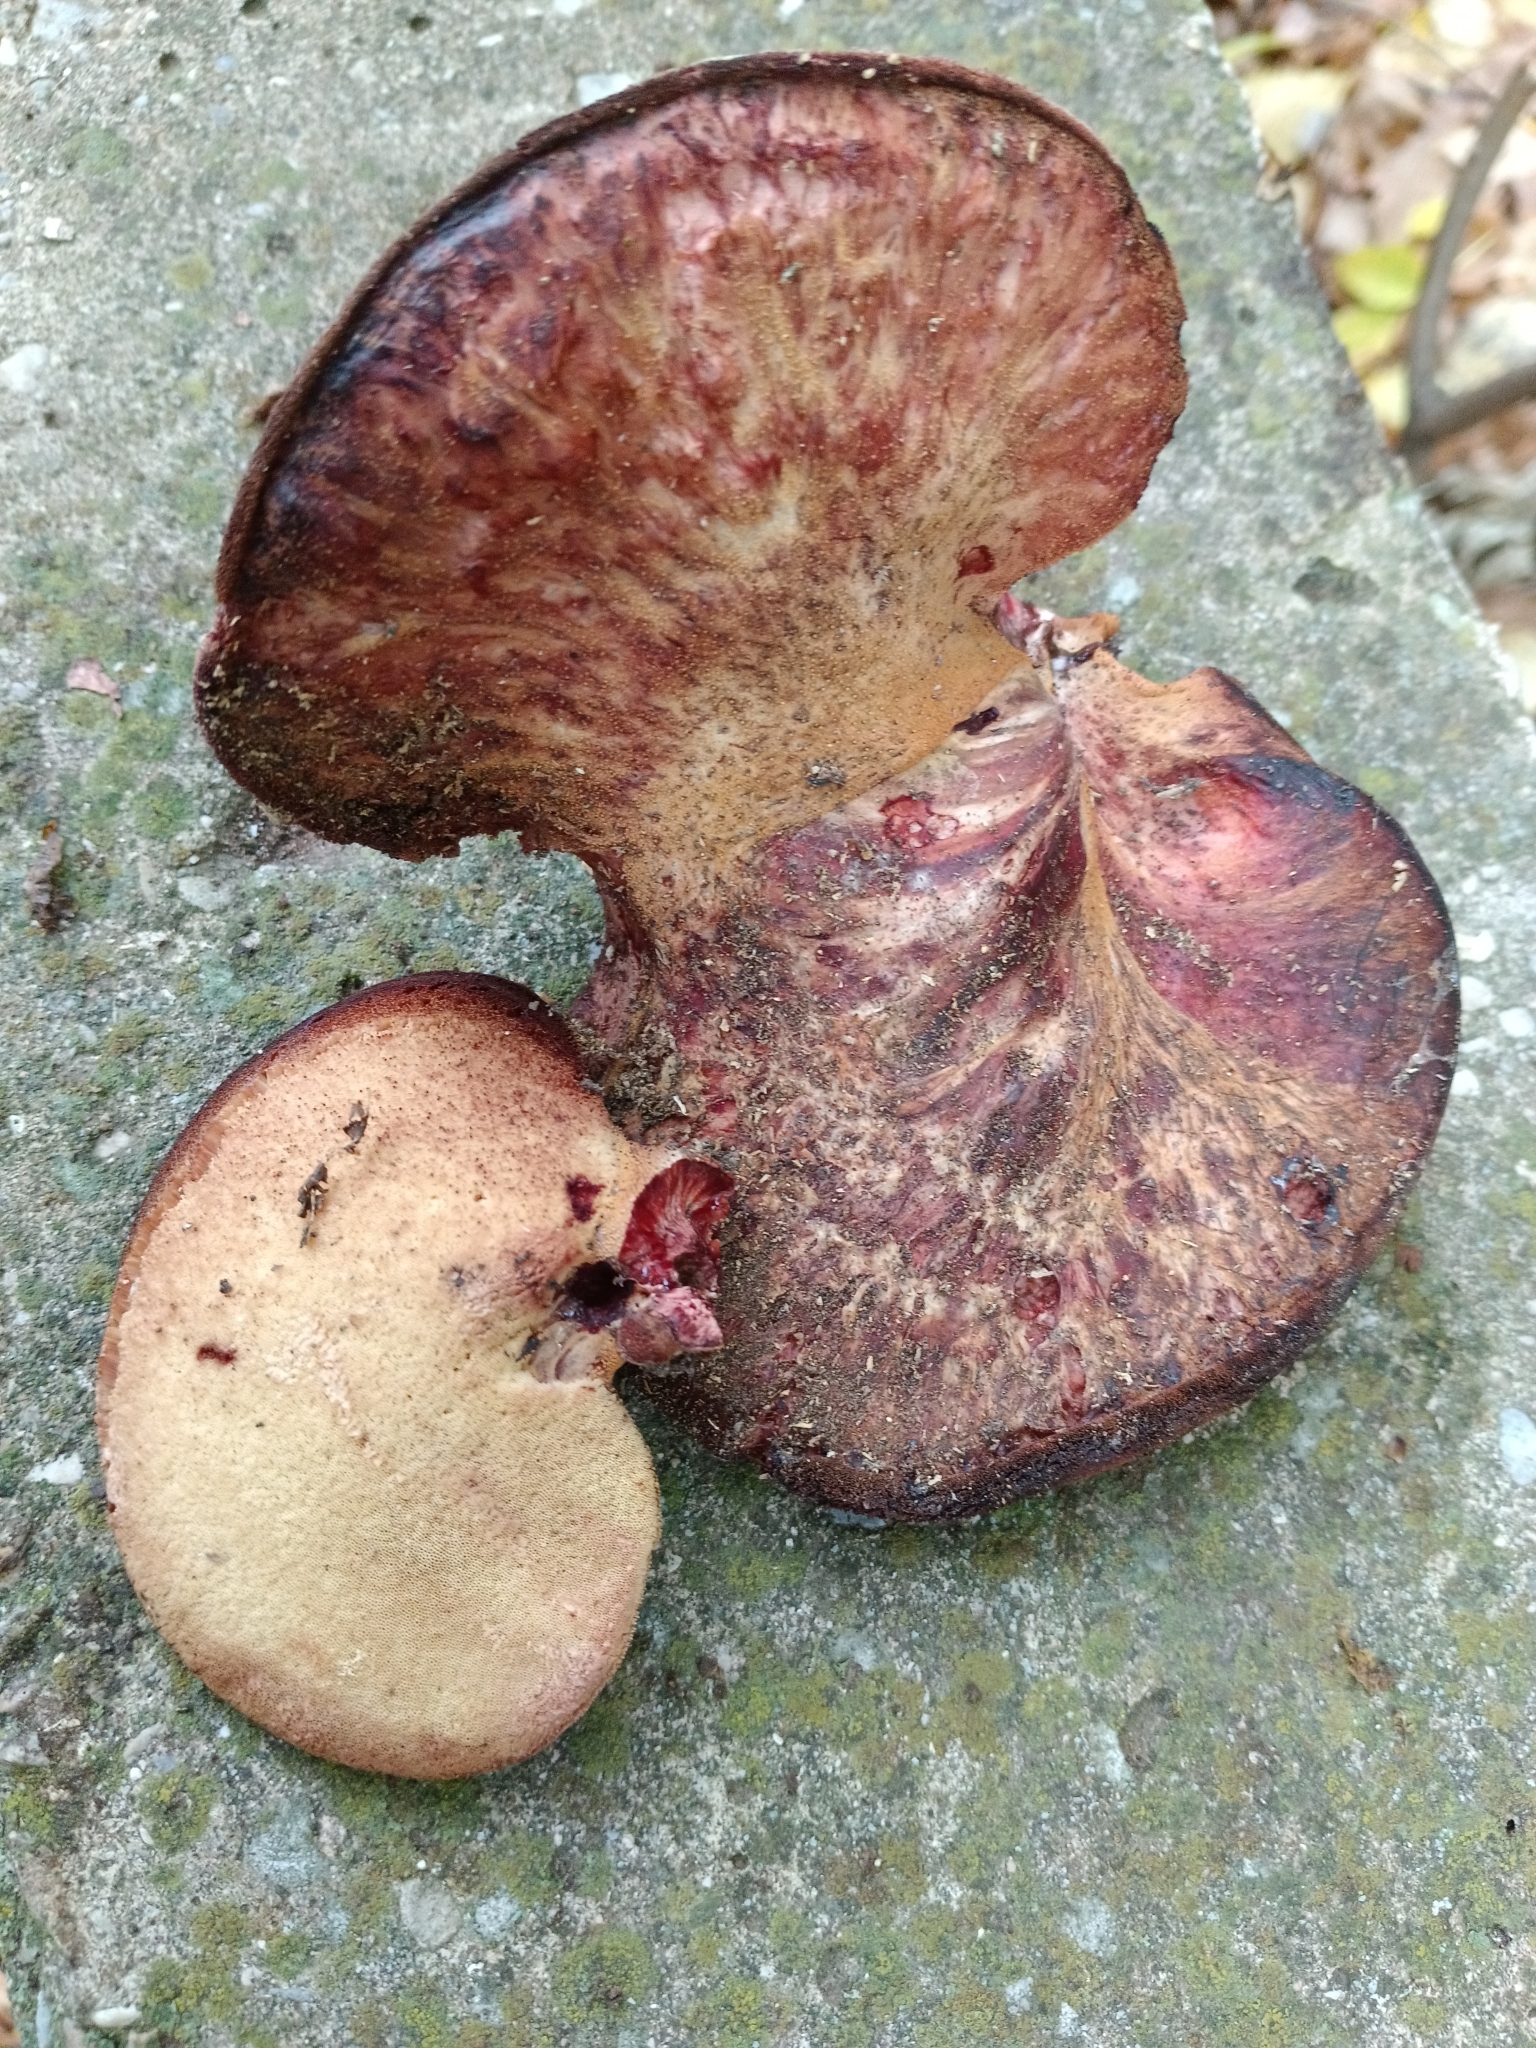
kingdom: Fungi
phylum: Basidiomycota
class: Agaricomycetes
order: Agaricales
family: Fistulinaceae
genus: Fistulina
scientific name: Fistulina hepatica
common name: Beef-steak fungus
